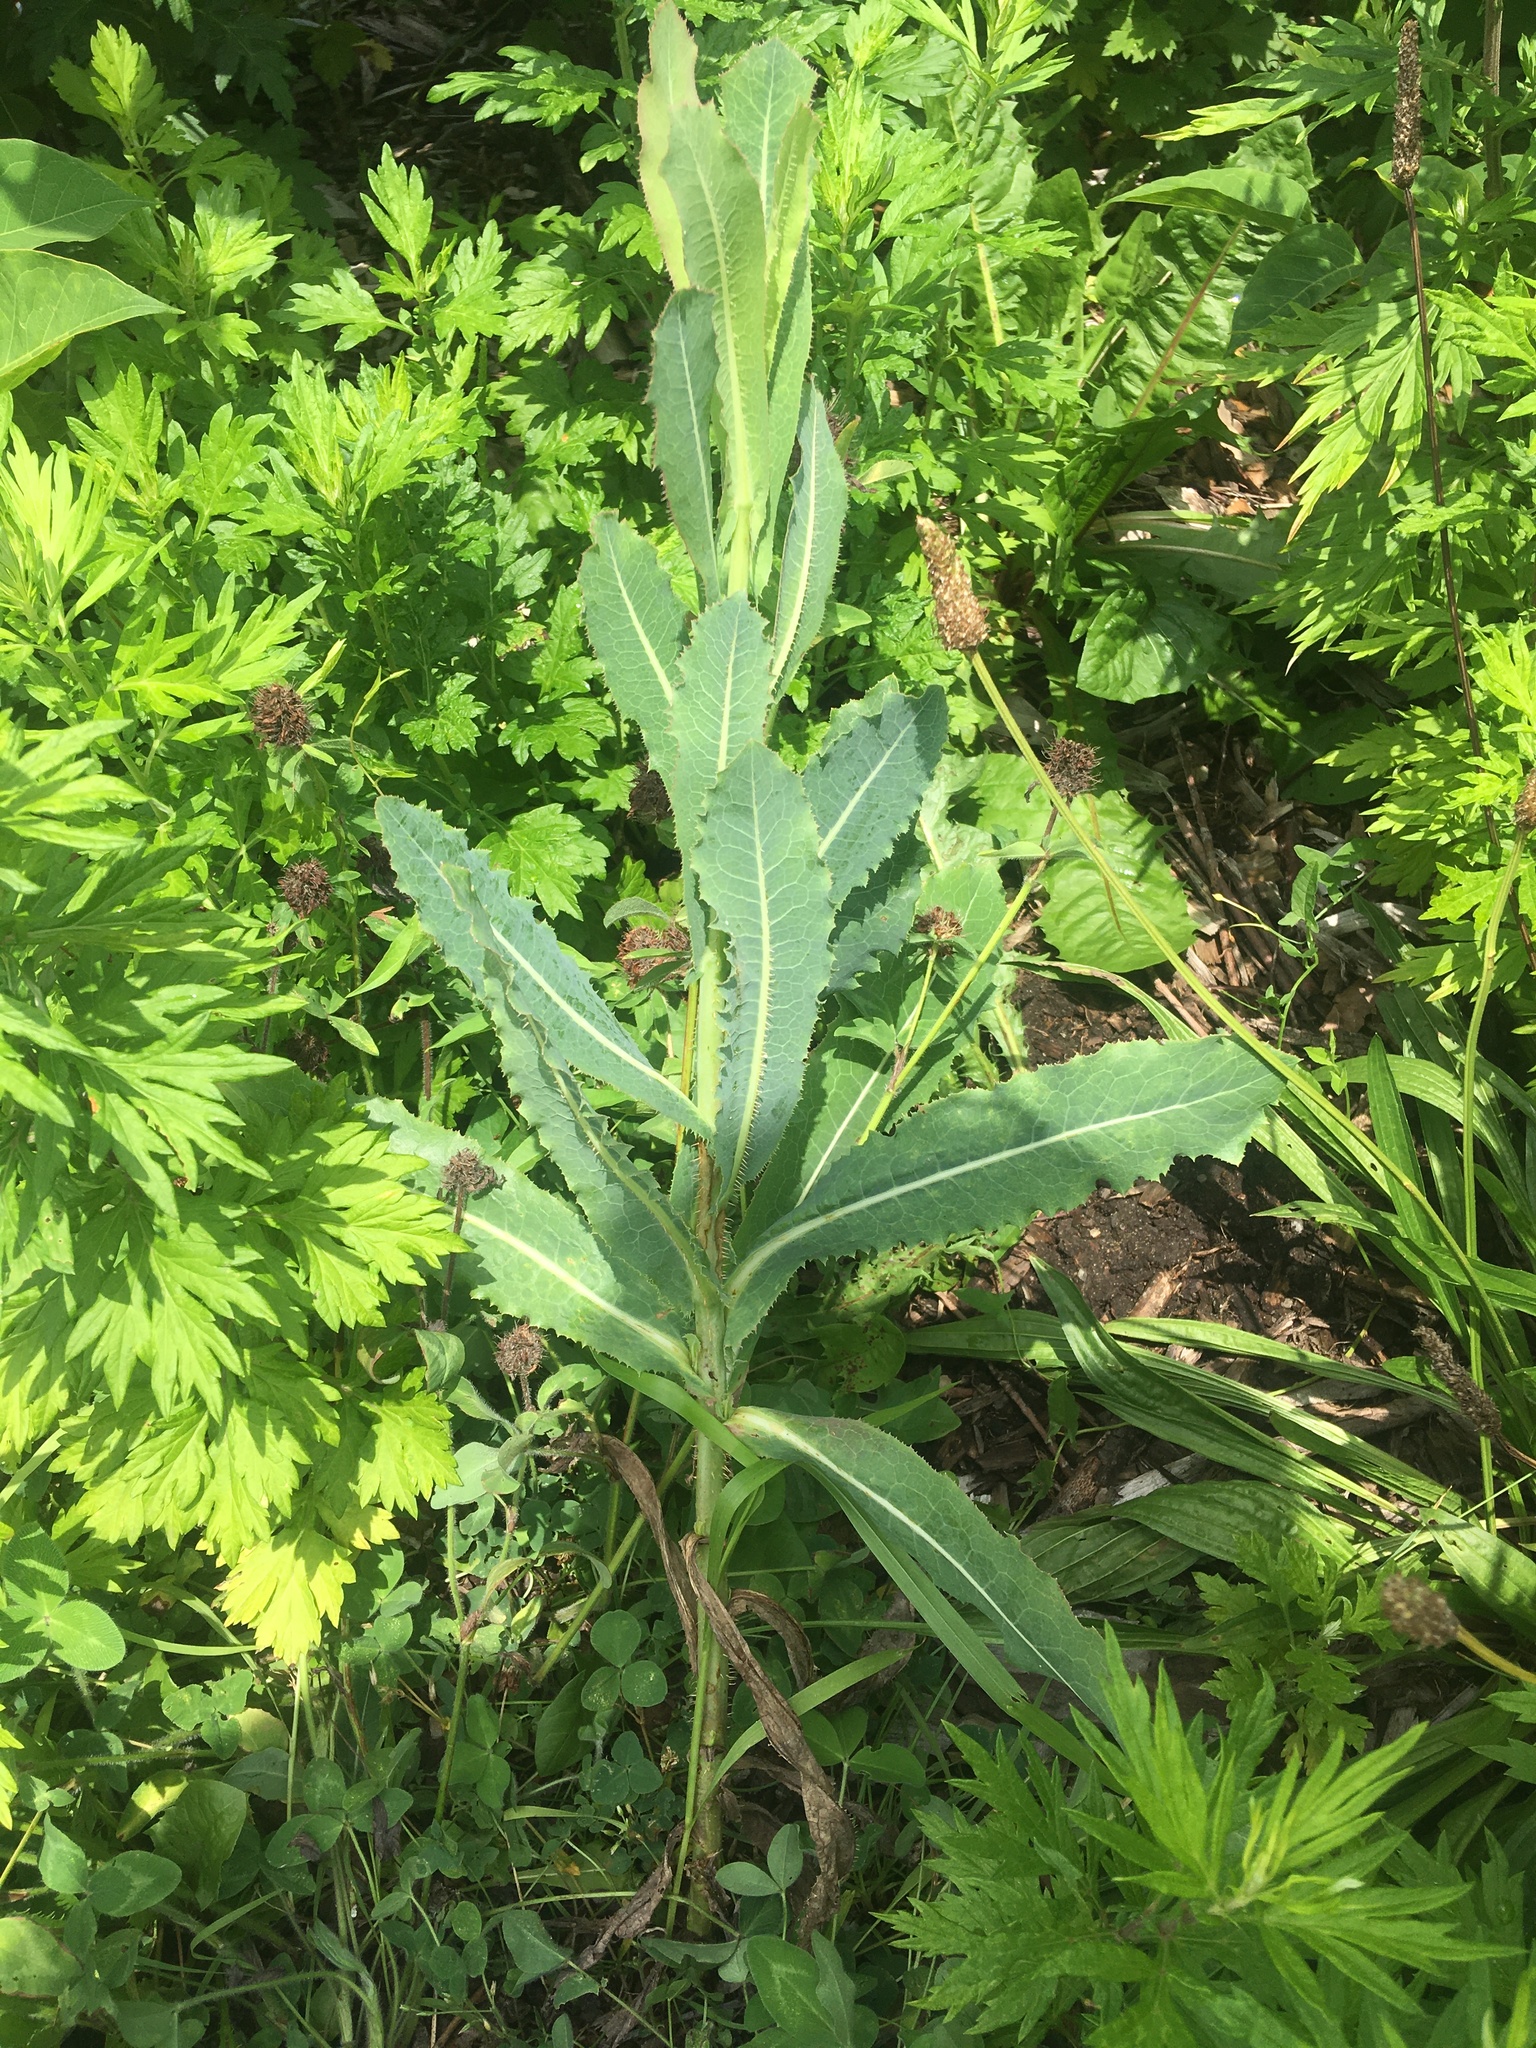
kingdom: Plantae
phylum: Tracheophyta
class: Magnoliopsida
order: Asterales
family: Asteraceae
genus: Lactuca
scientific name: Lactuca serriola
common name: Prickly lettuce
